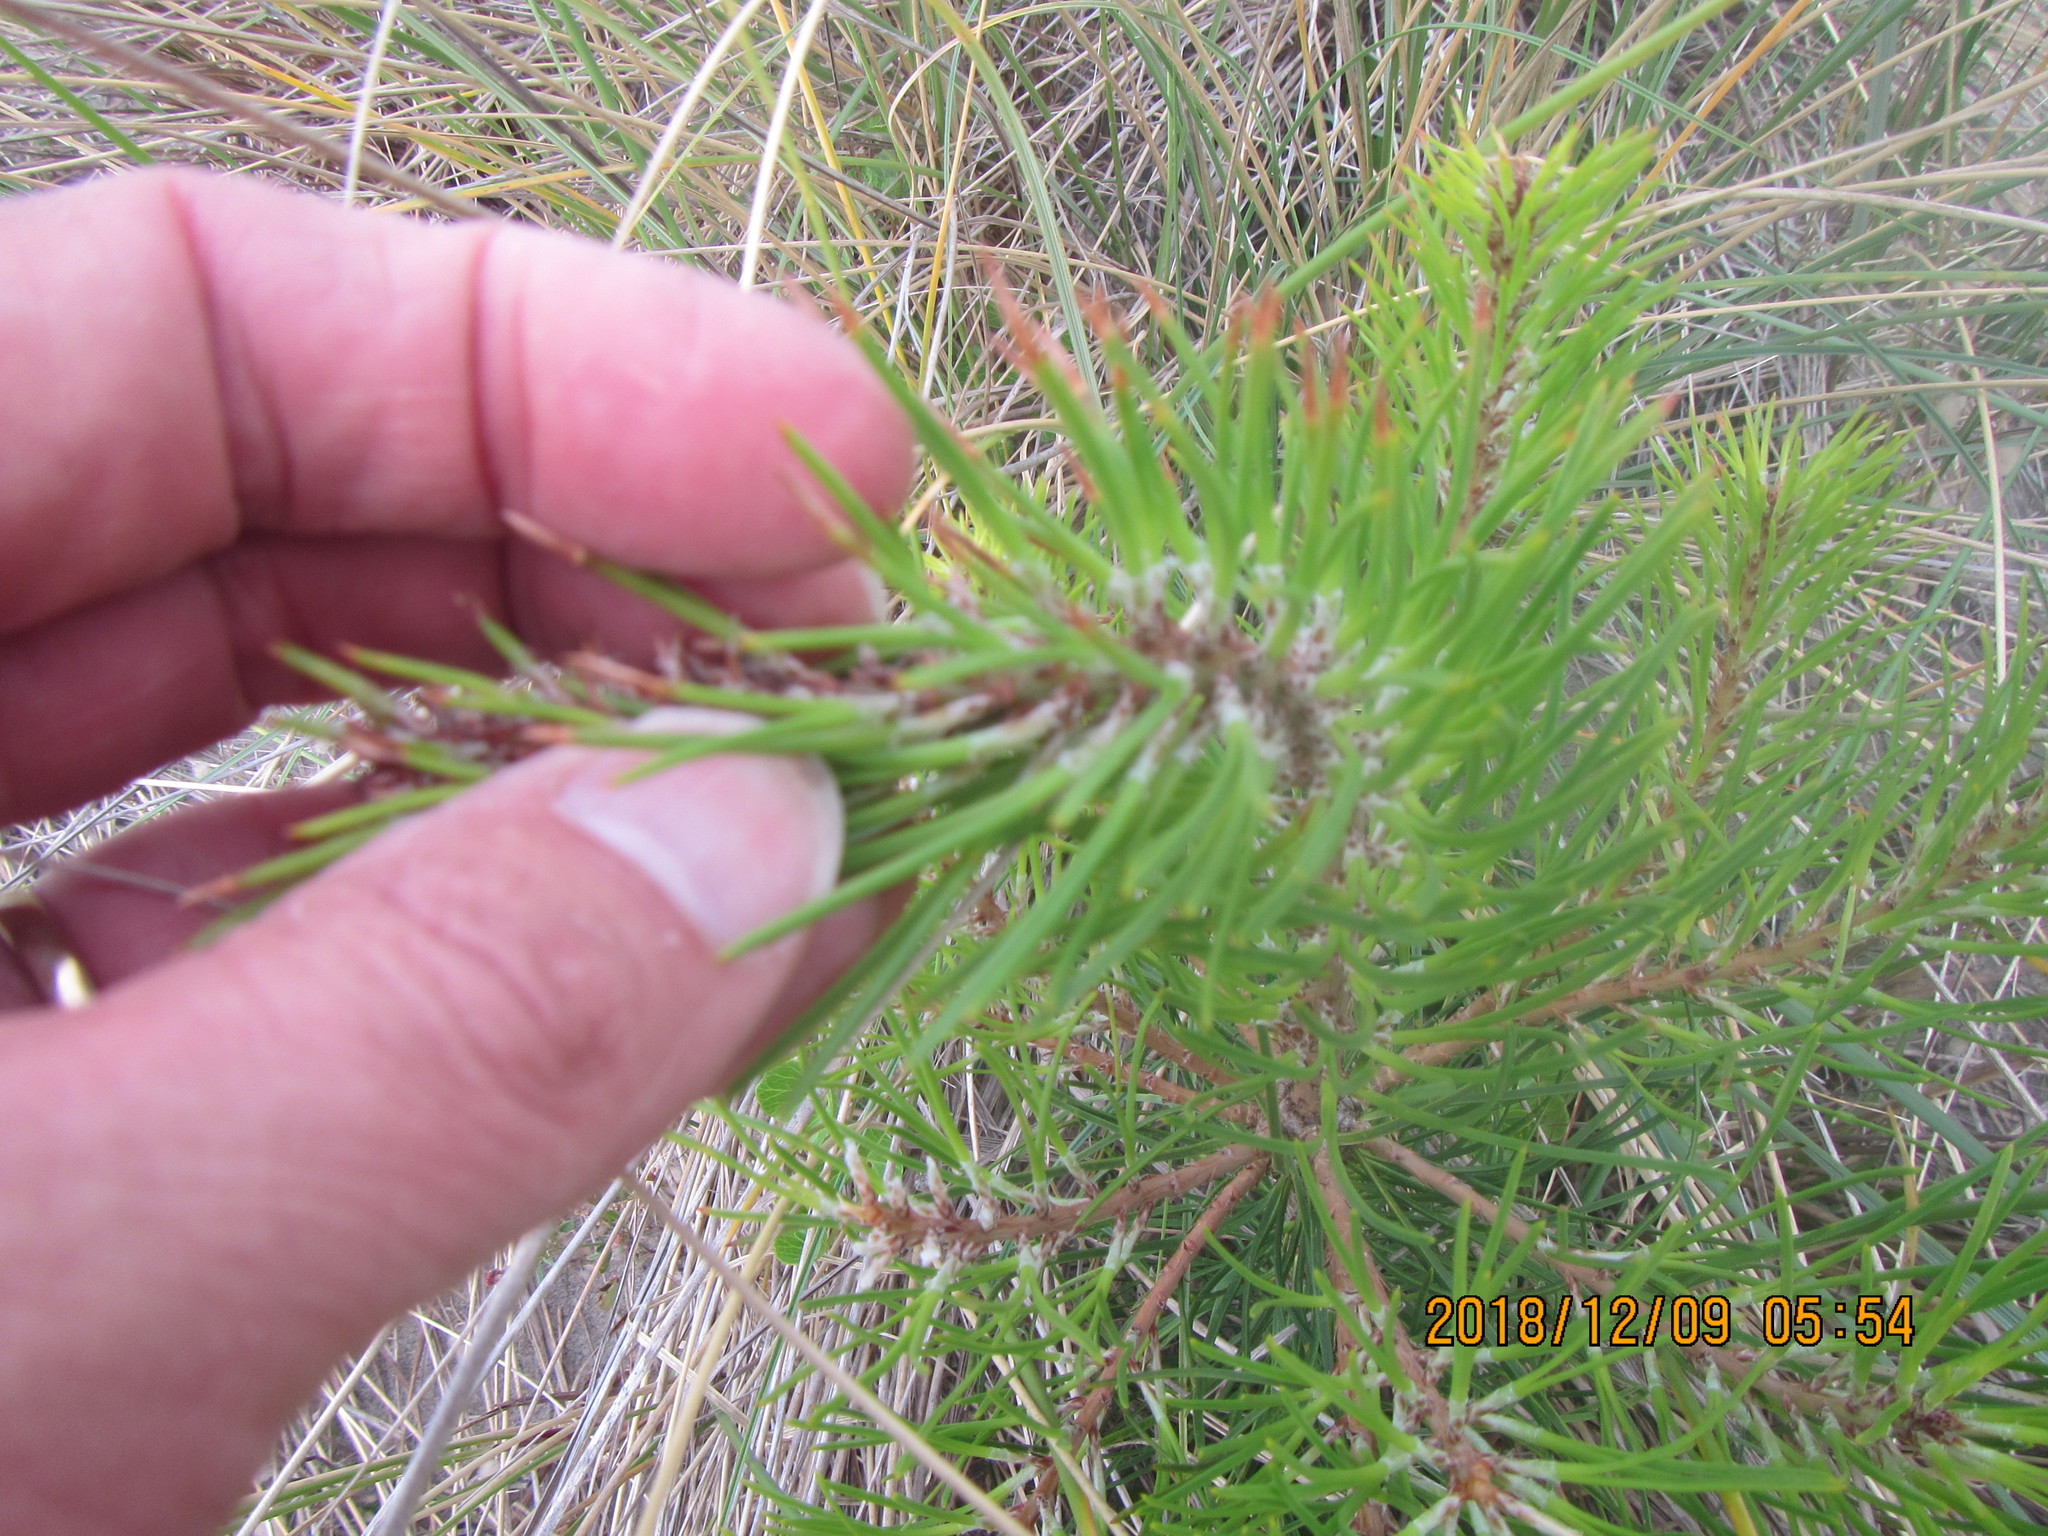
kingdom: Plantae
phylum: Tracheophyta
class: Pinopsida
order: Pinales
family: Pinaceae
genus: Pinus
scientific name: Pinus pinaster
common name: Maritime pine
